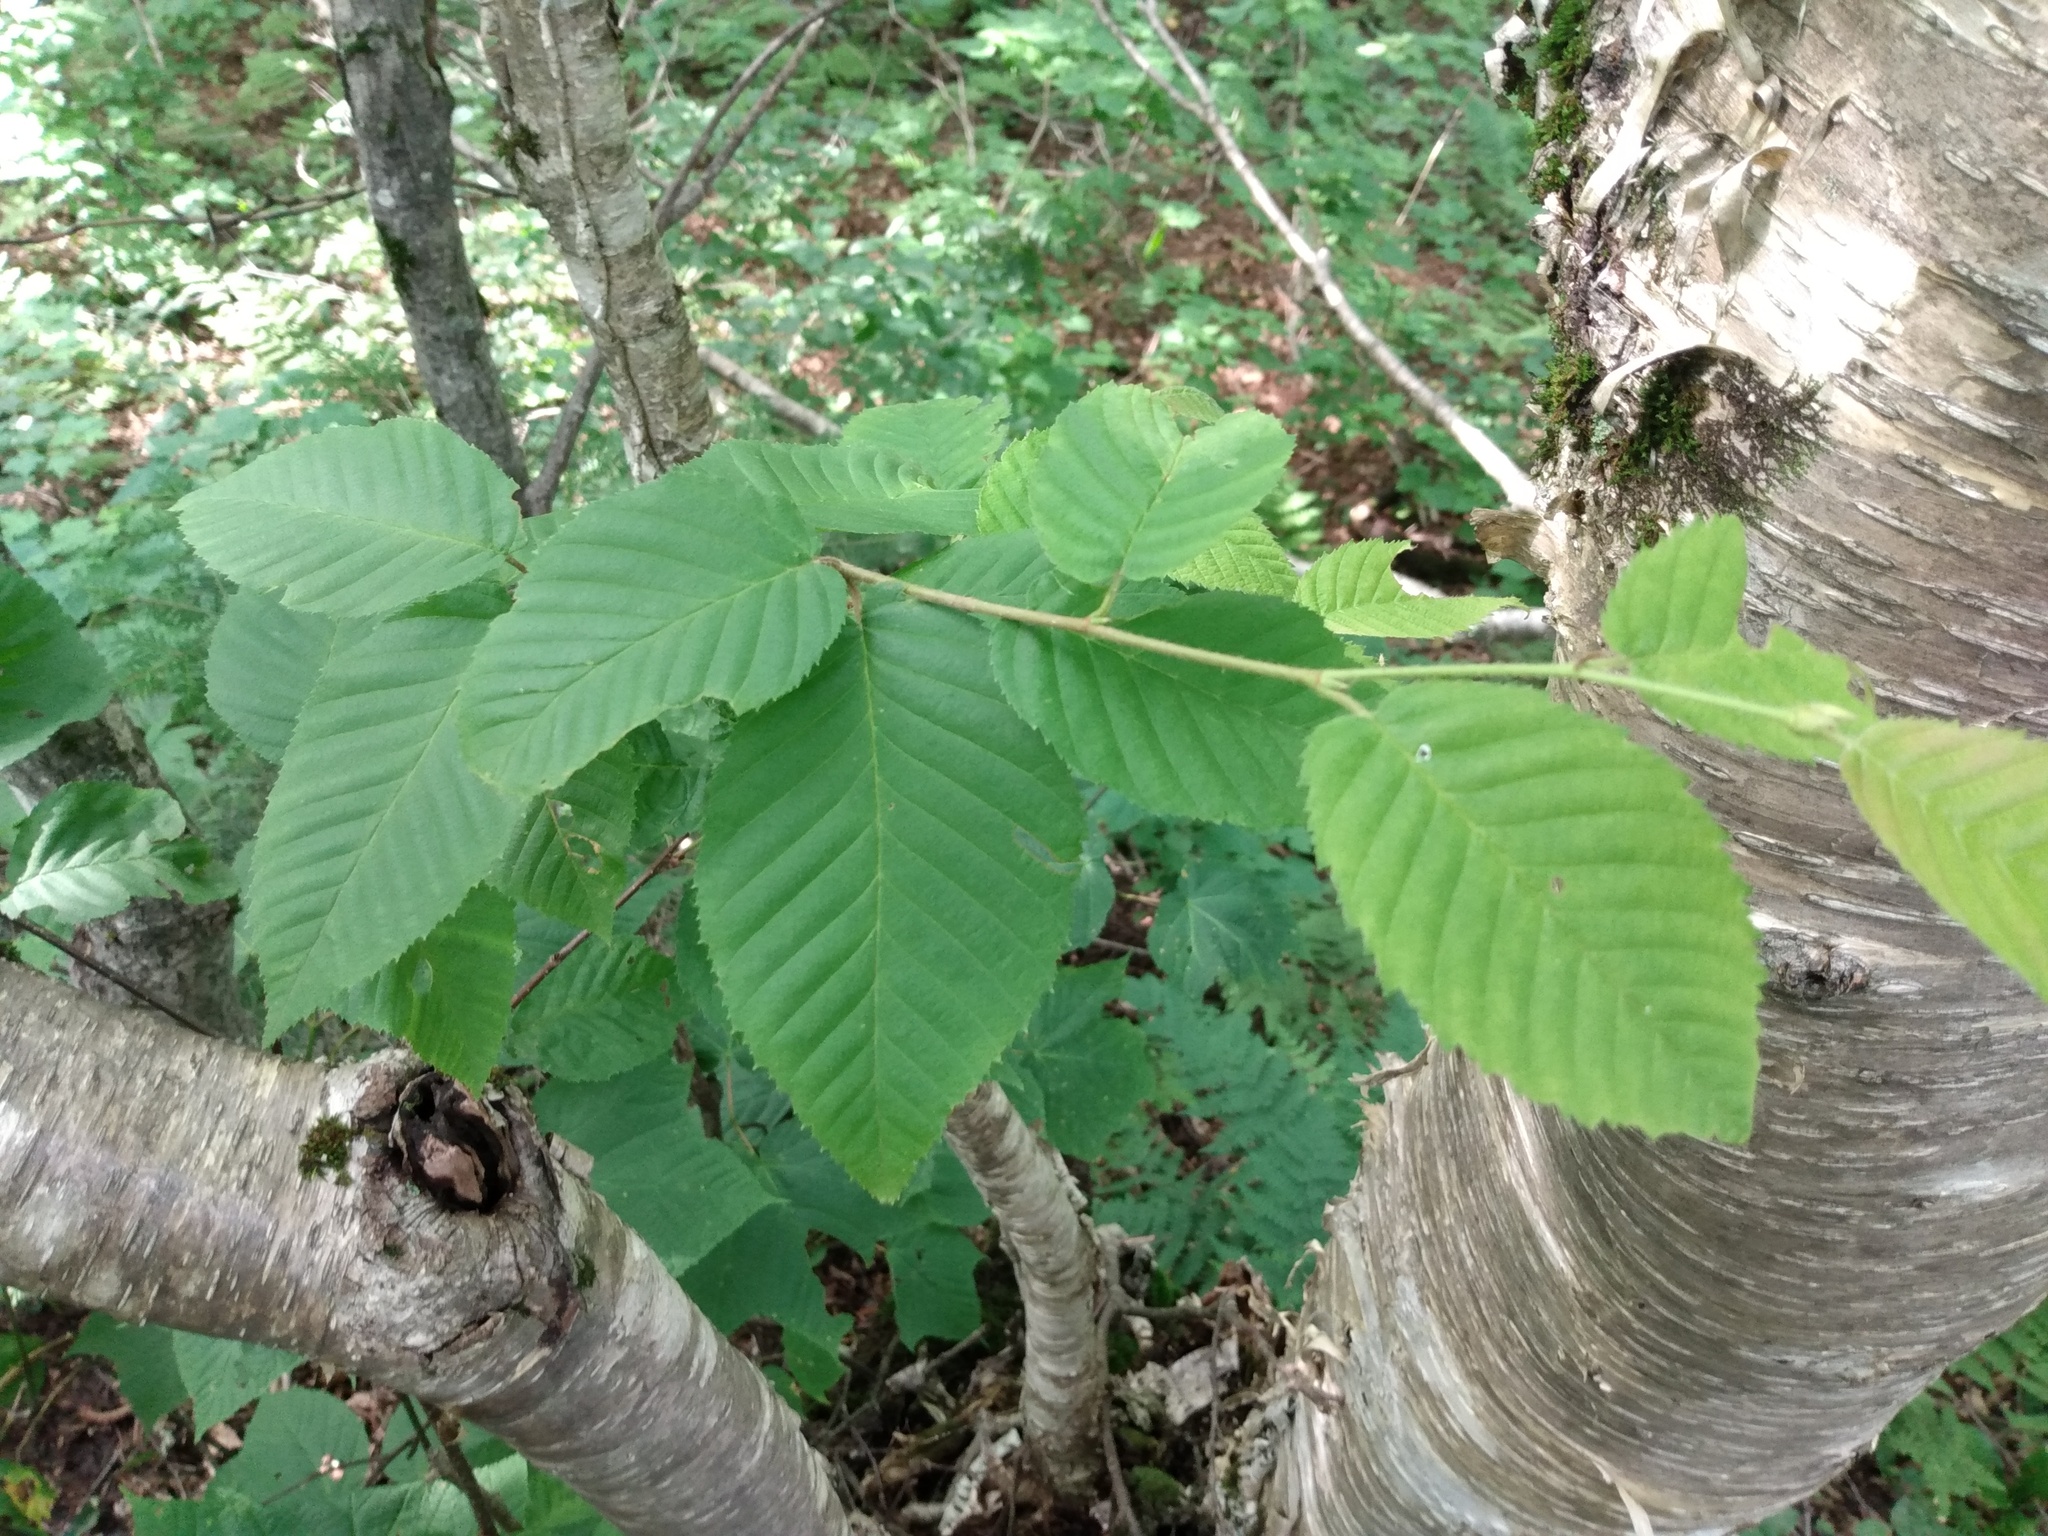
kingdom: Plantae
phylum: Tracheophyta
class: Magnoliopsida
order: Fagales
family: Betulaceae
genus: Betula
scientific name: Betula alleghaniensis
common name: Yellow birch
